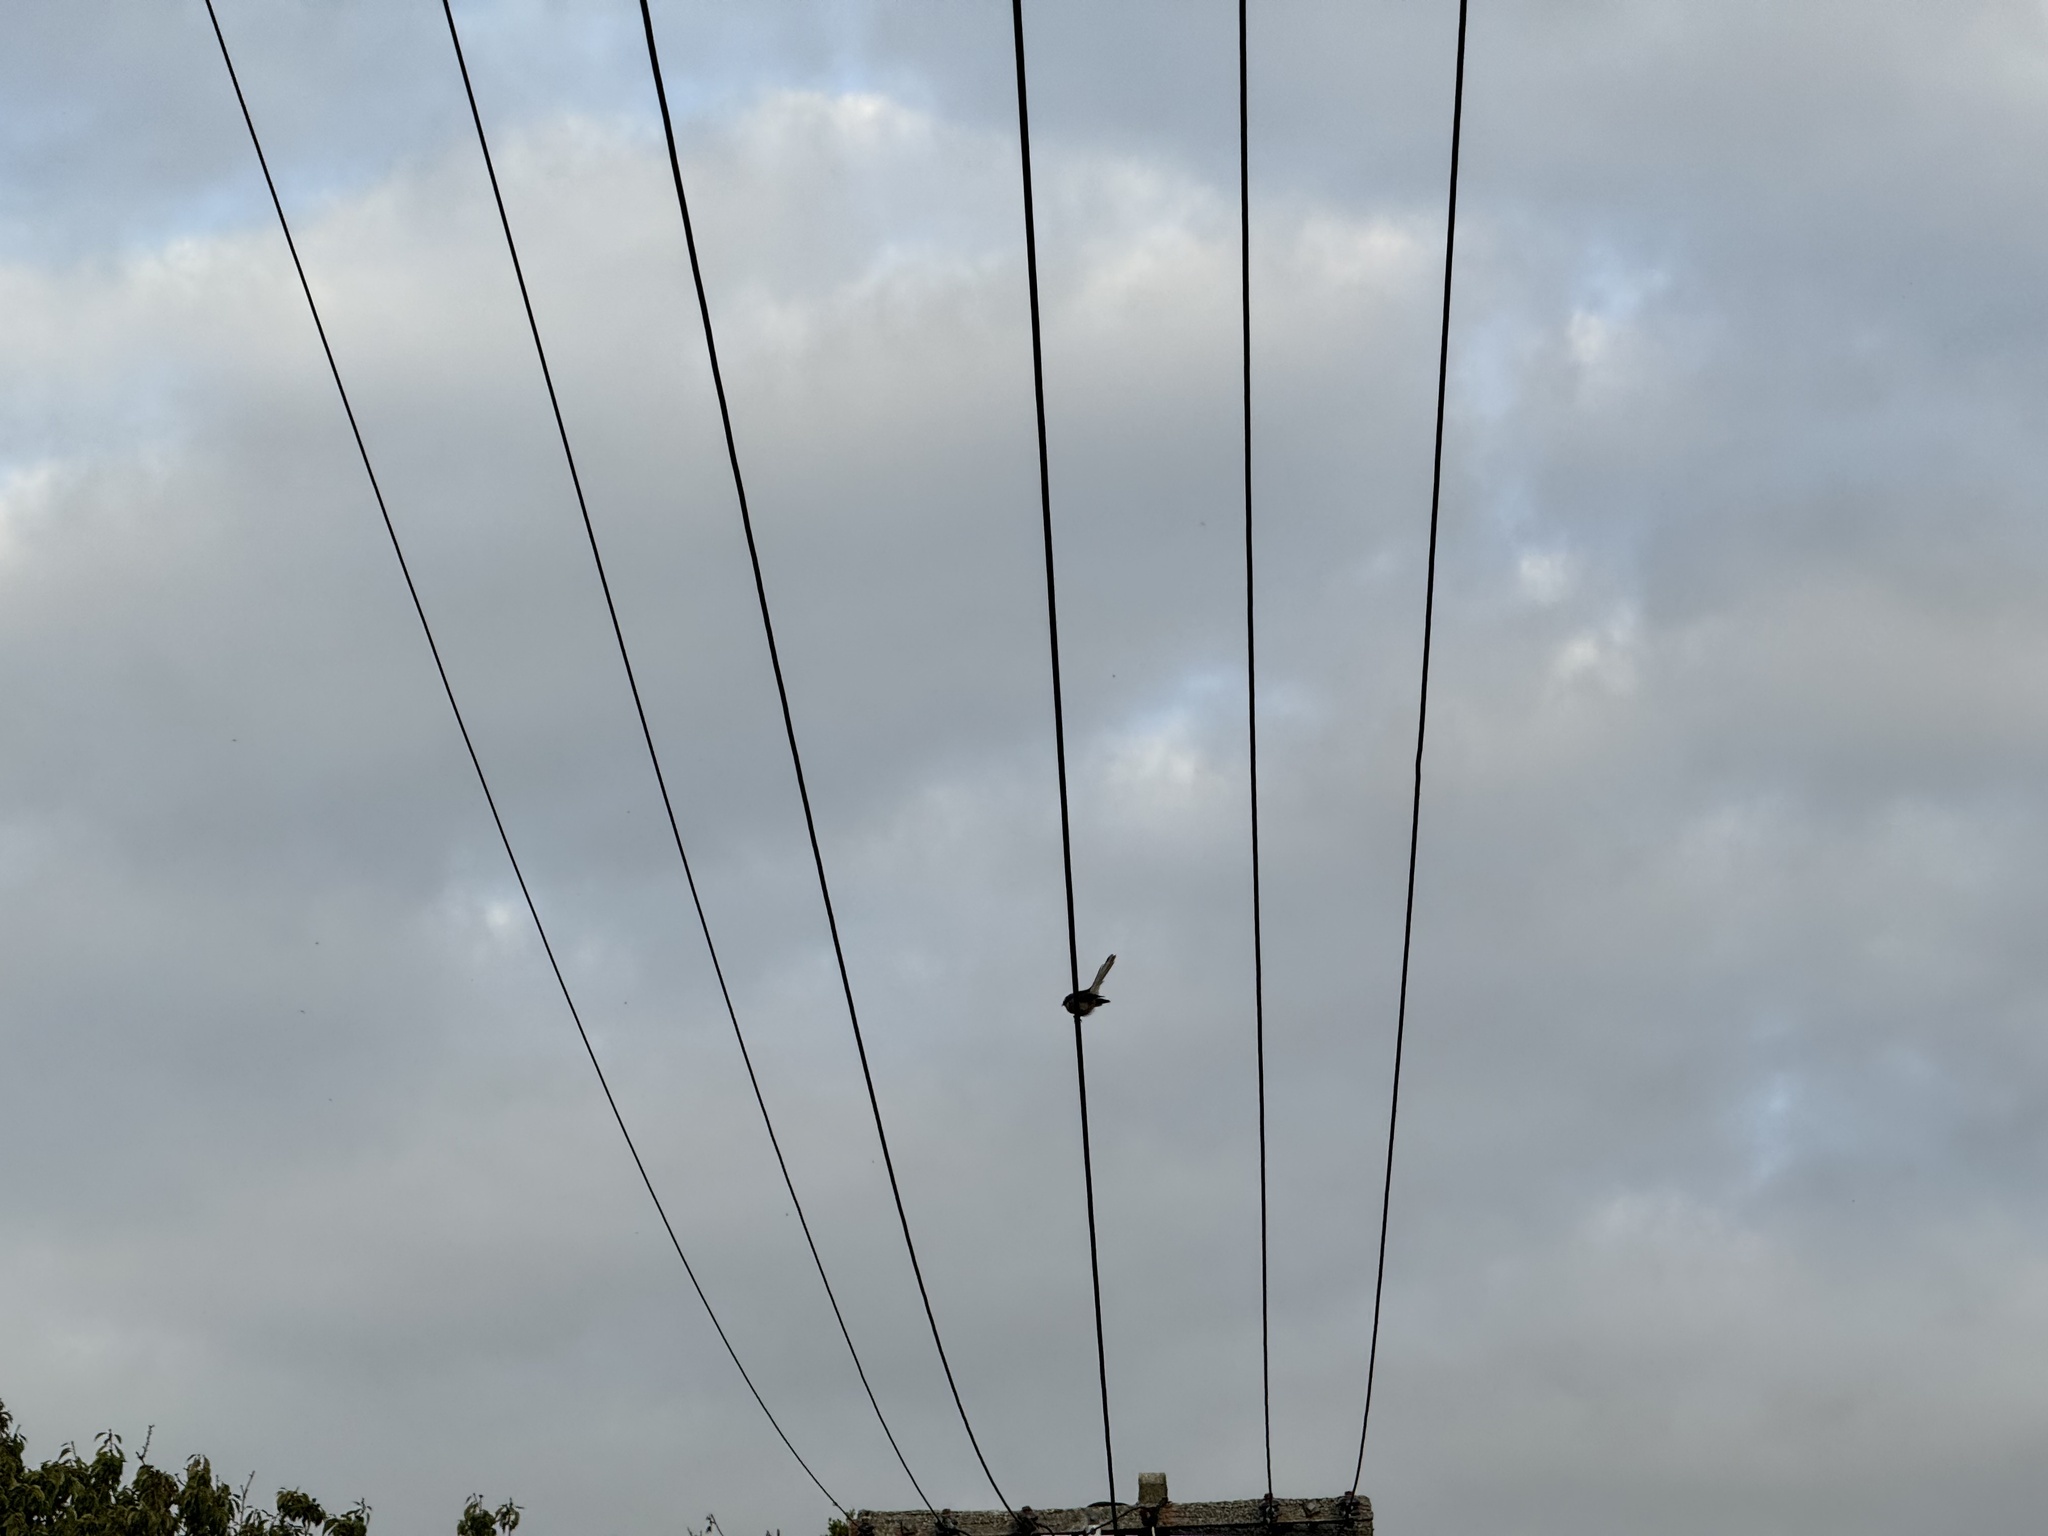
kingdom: Animalia
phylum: Chordata
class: Aves
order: Passeriformes
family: Rhipiduridae
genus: Rhipidura
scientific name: Rhipidura fuliginosa
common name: New zealand fantail
